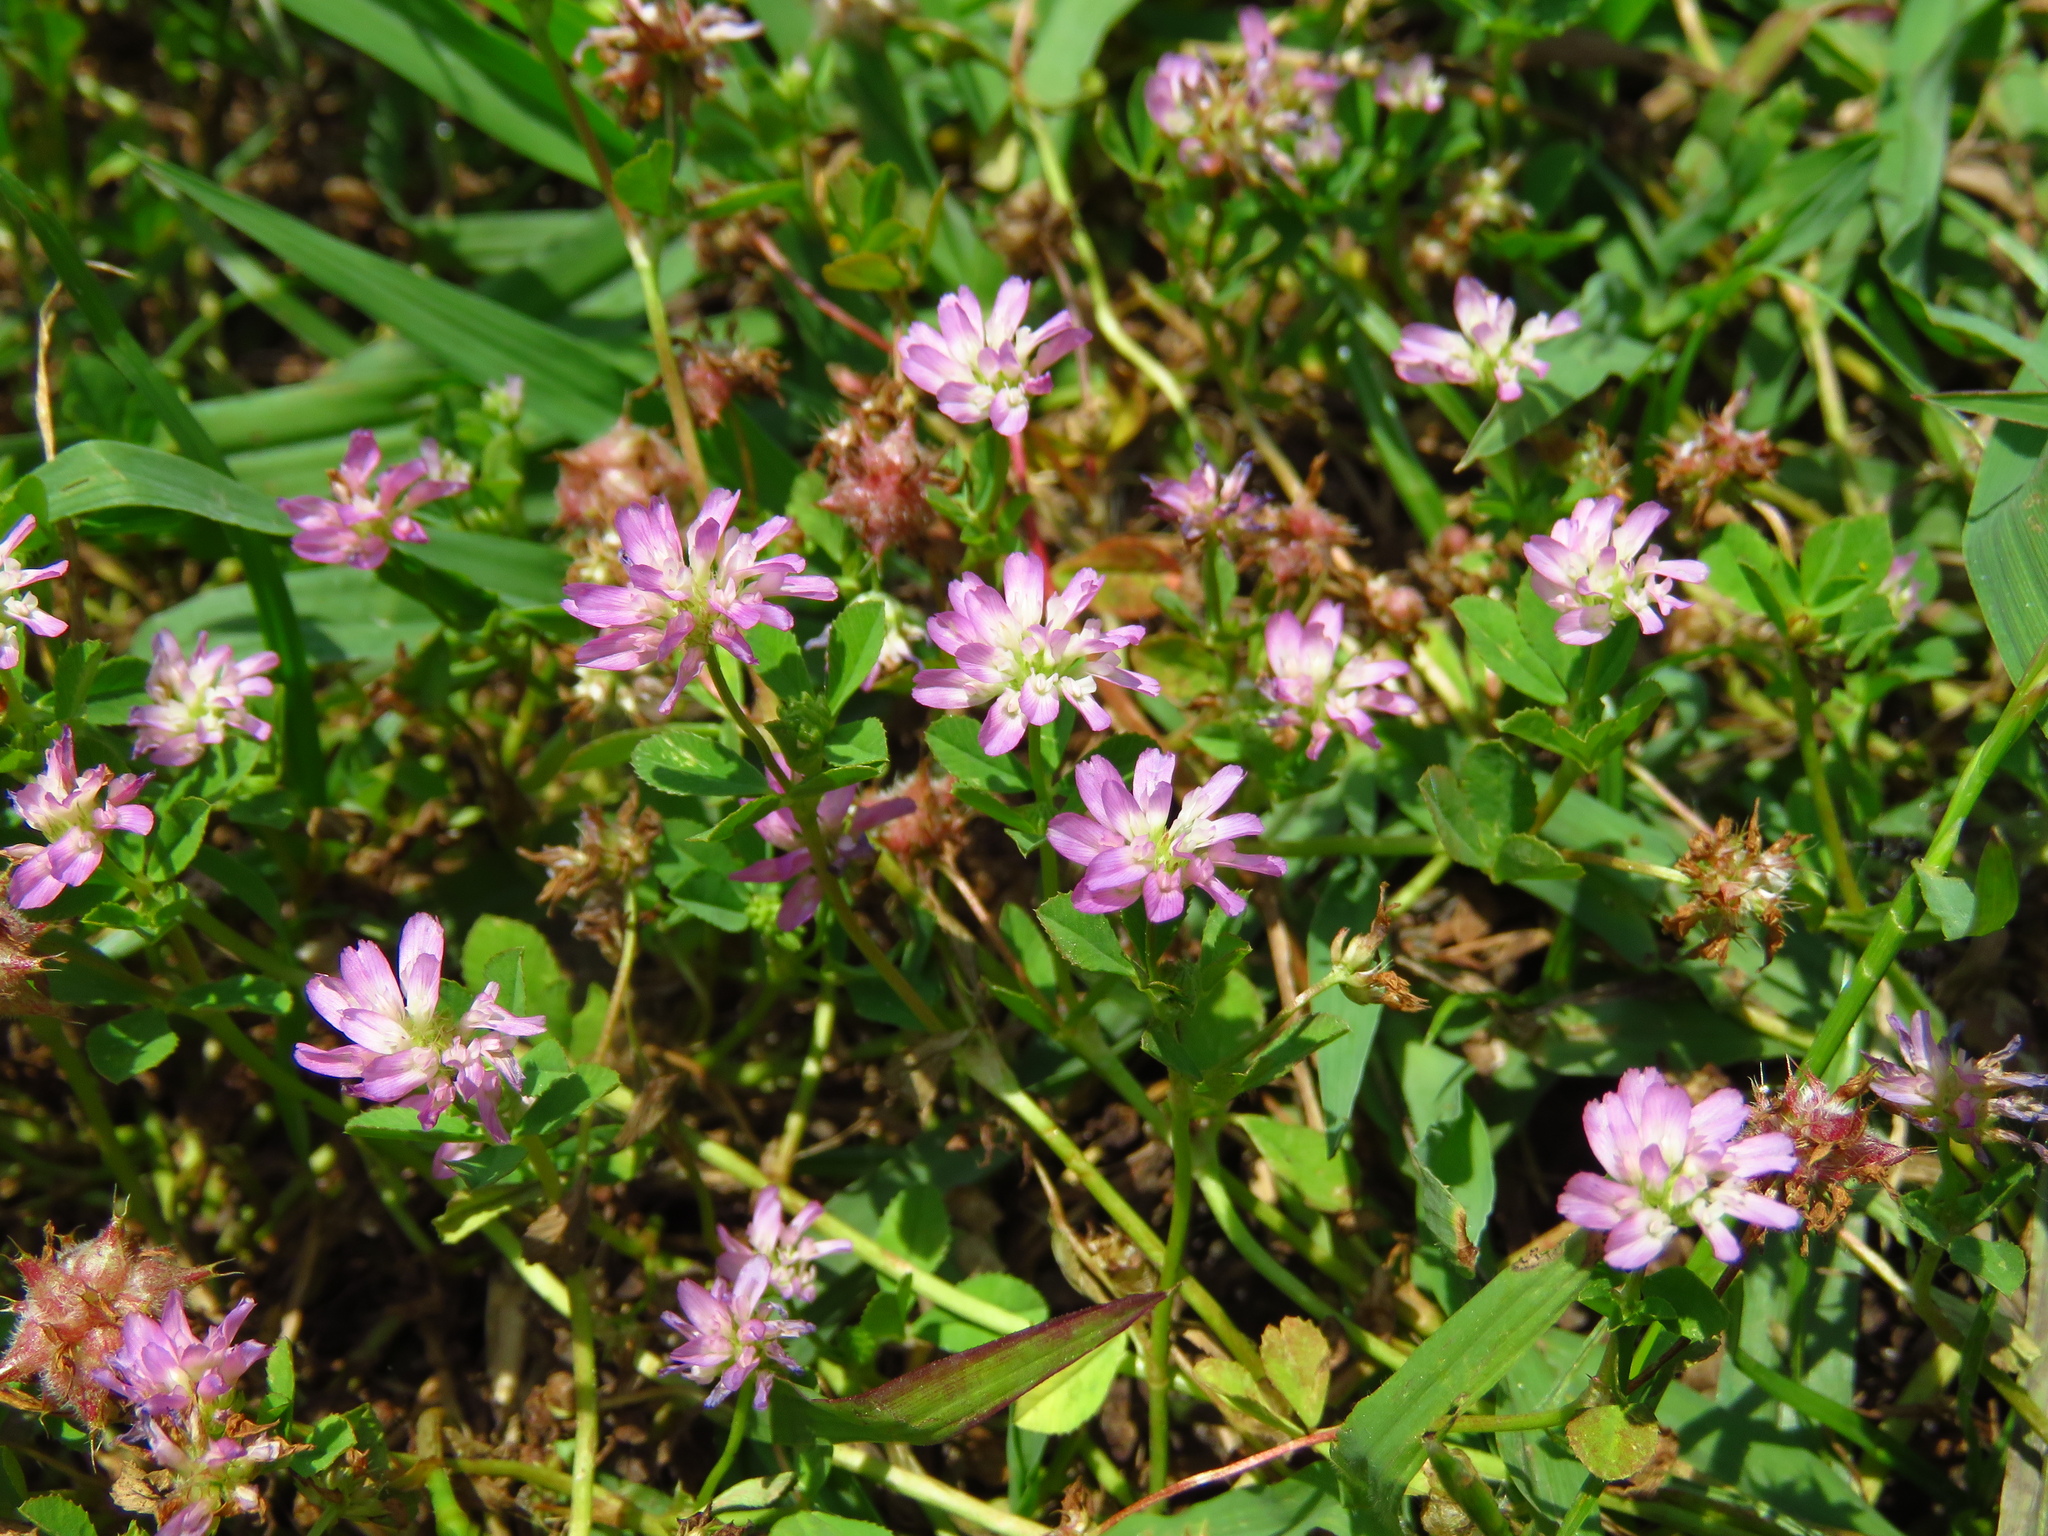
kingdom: Plantae
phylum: Tracheophyta
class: Magnoliopsida
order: Fabales
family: Fabaceae
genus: Trifolium
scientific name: Trifolium resupinatum
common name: Reversed clover
